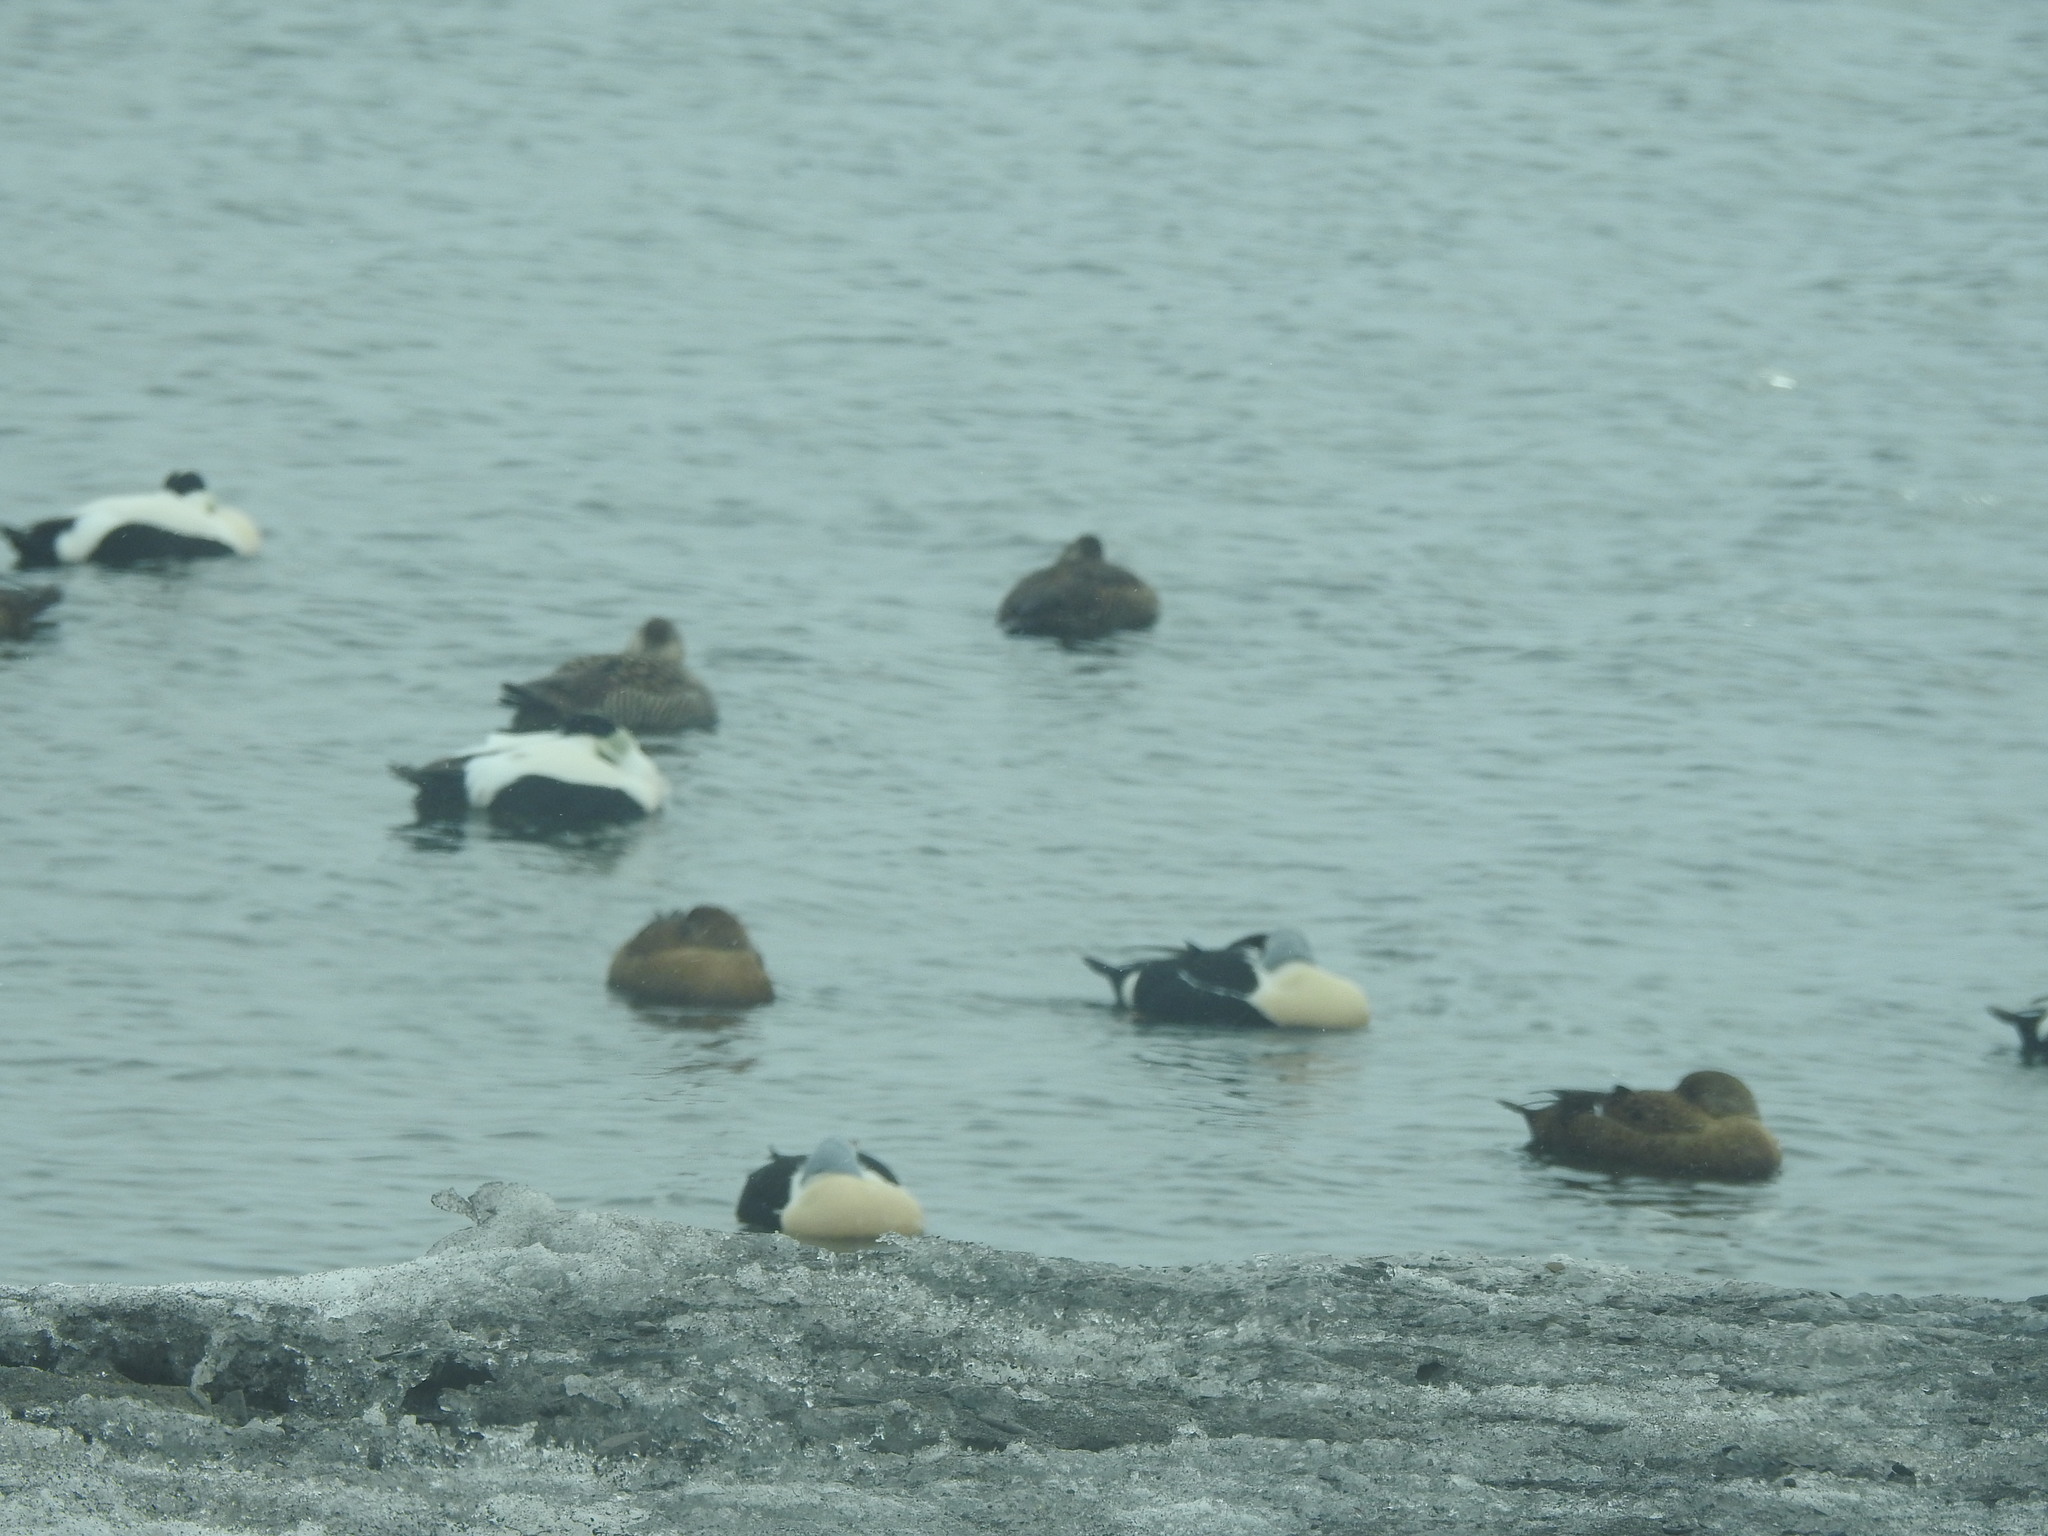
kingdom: Animalia
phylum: Chordata
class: Aves
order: Anseriformes
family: Anatidae
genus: Somateria
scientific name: Somateria spectabilis
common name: King eider
